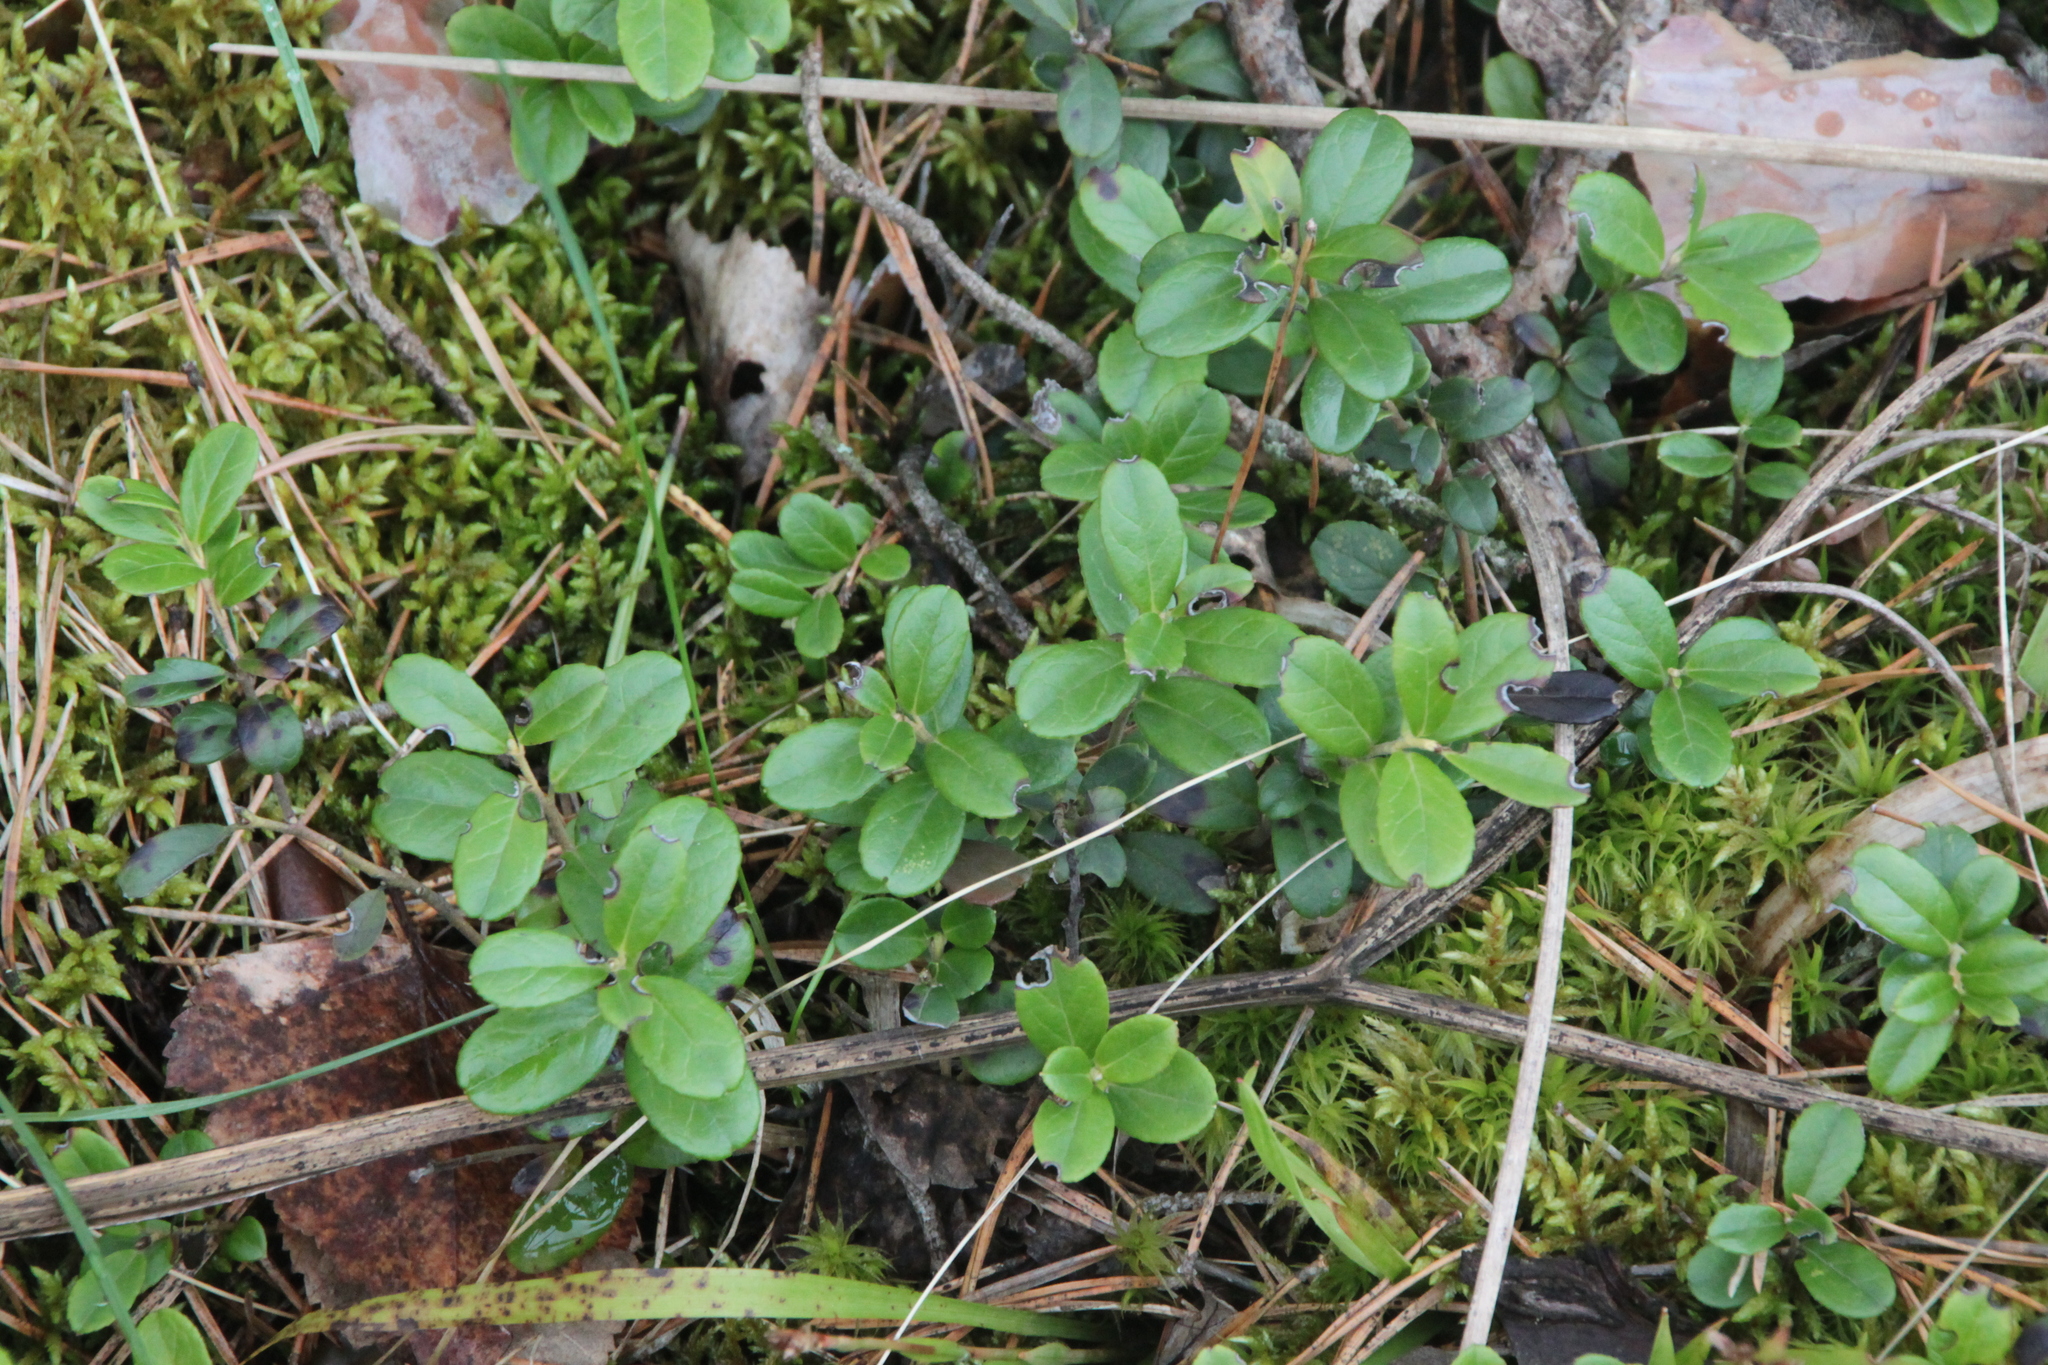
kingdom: Plantae
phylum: Tracheophyta
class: Magnoliopsida
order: Ericales
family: Ericaceae
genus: Vaccinium
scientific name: Vaccinium vitis-idaea
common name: Cowberry
